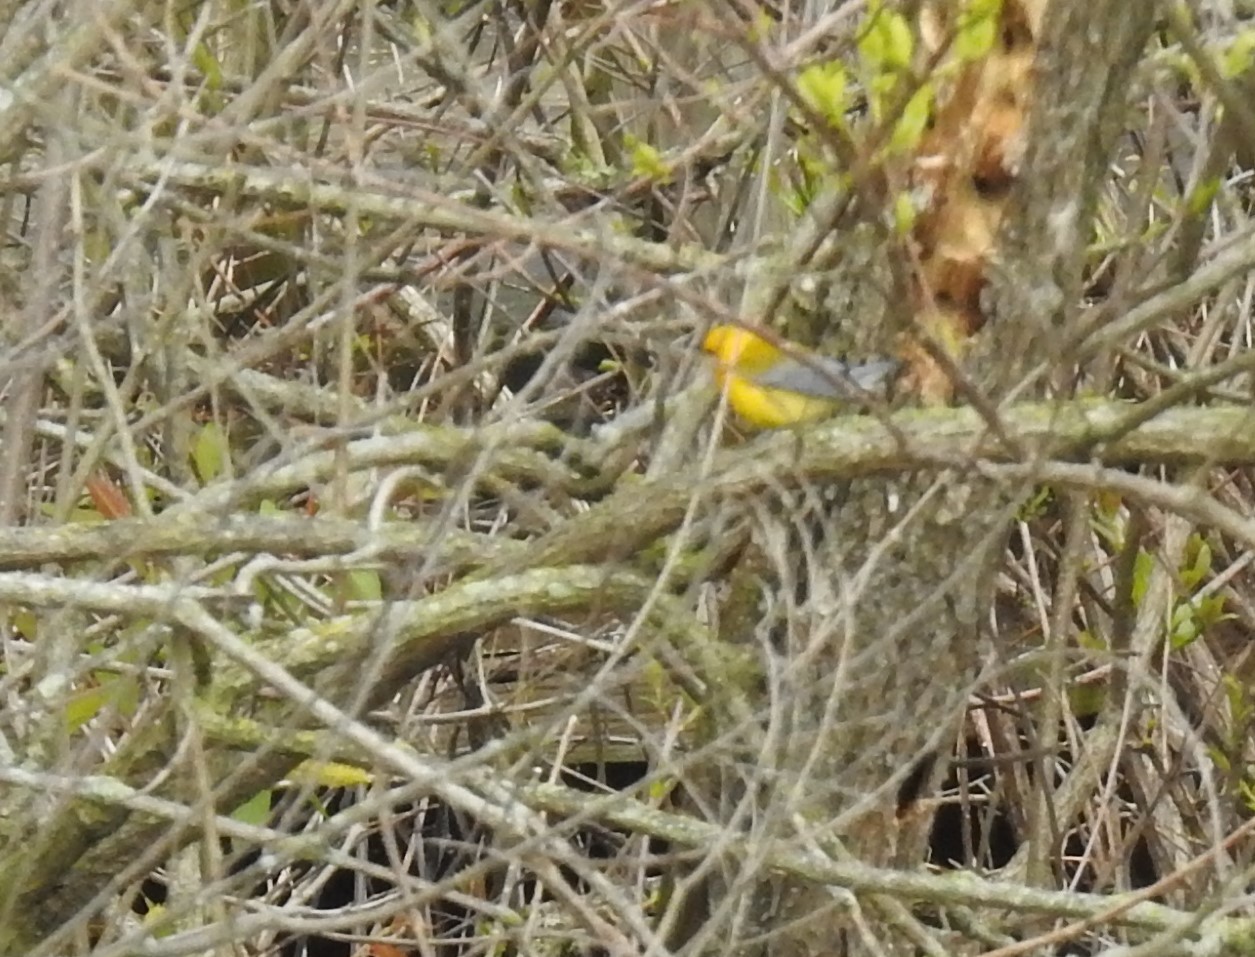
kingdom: Animalia
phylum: Chordata
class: Aves
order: Passeriformes
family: Parulidae
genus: Protonotaria
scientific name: Protonotaria citrea
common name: Prothonotary warbler
